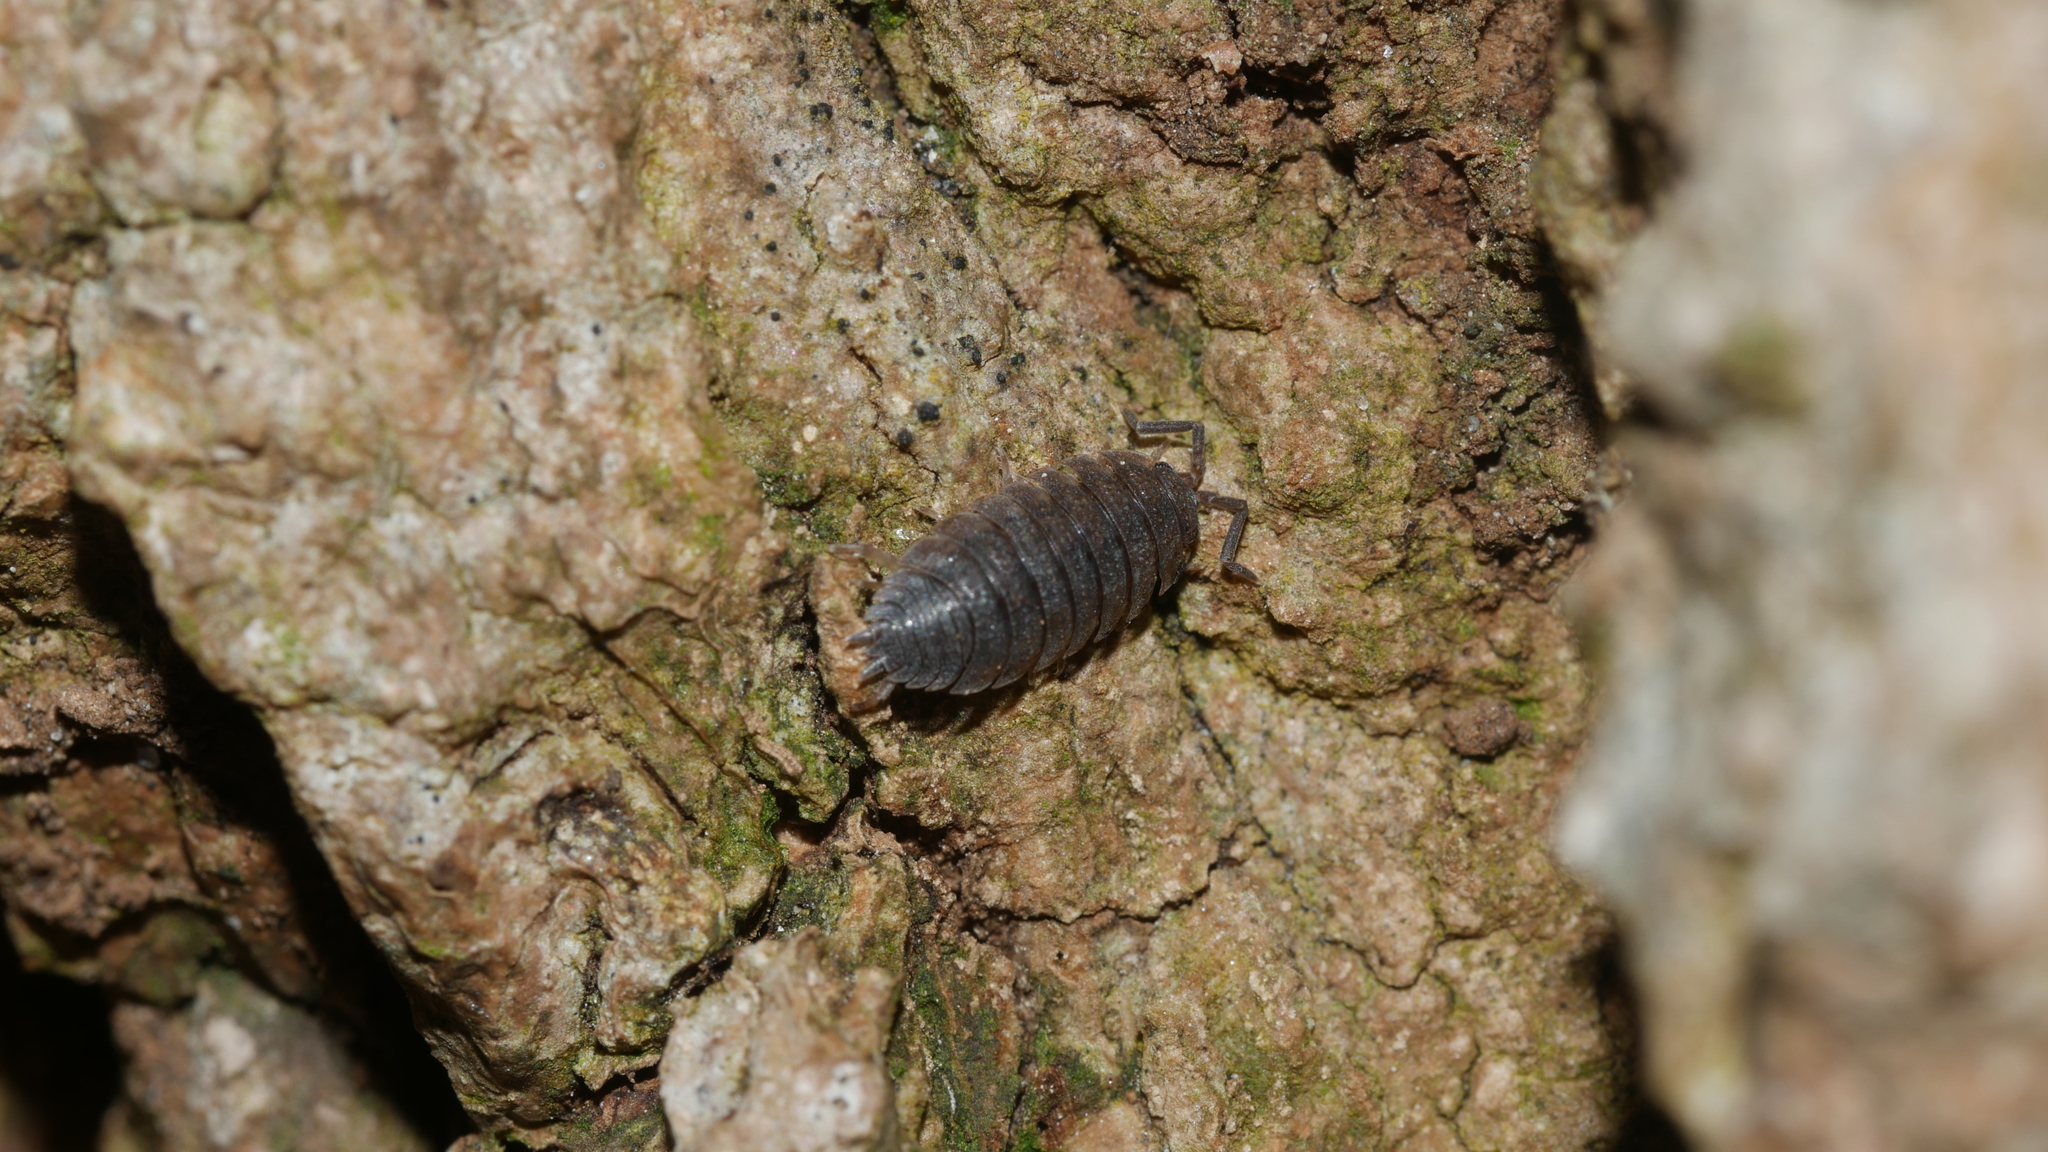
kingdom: Animalia
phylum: Arthropoda
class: Malacostraca
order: Isopoda
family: Porcellionidae
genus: Porcellio
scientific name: Porcellio scaber
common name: Common rough woodlouse
